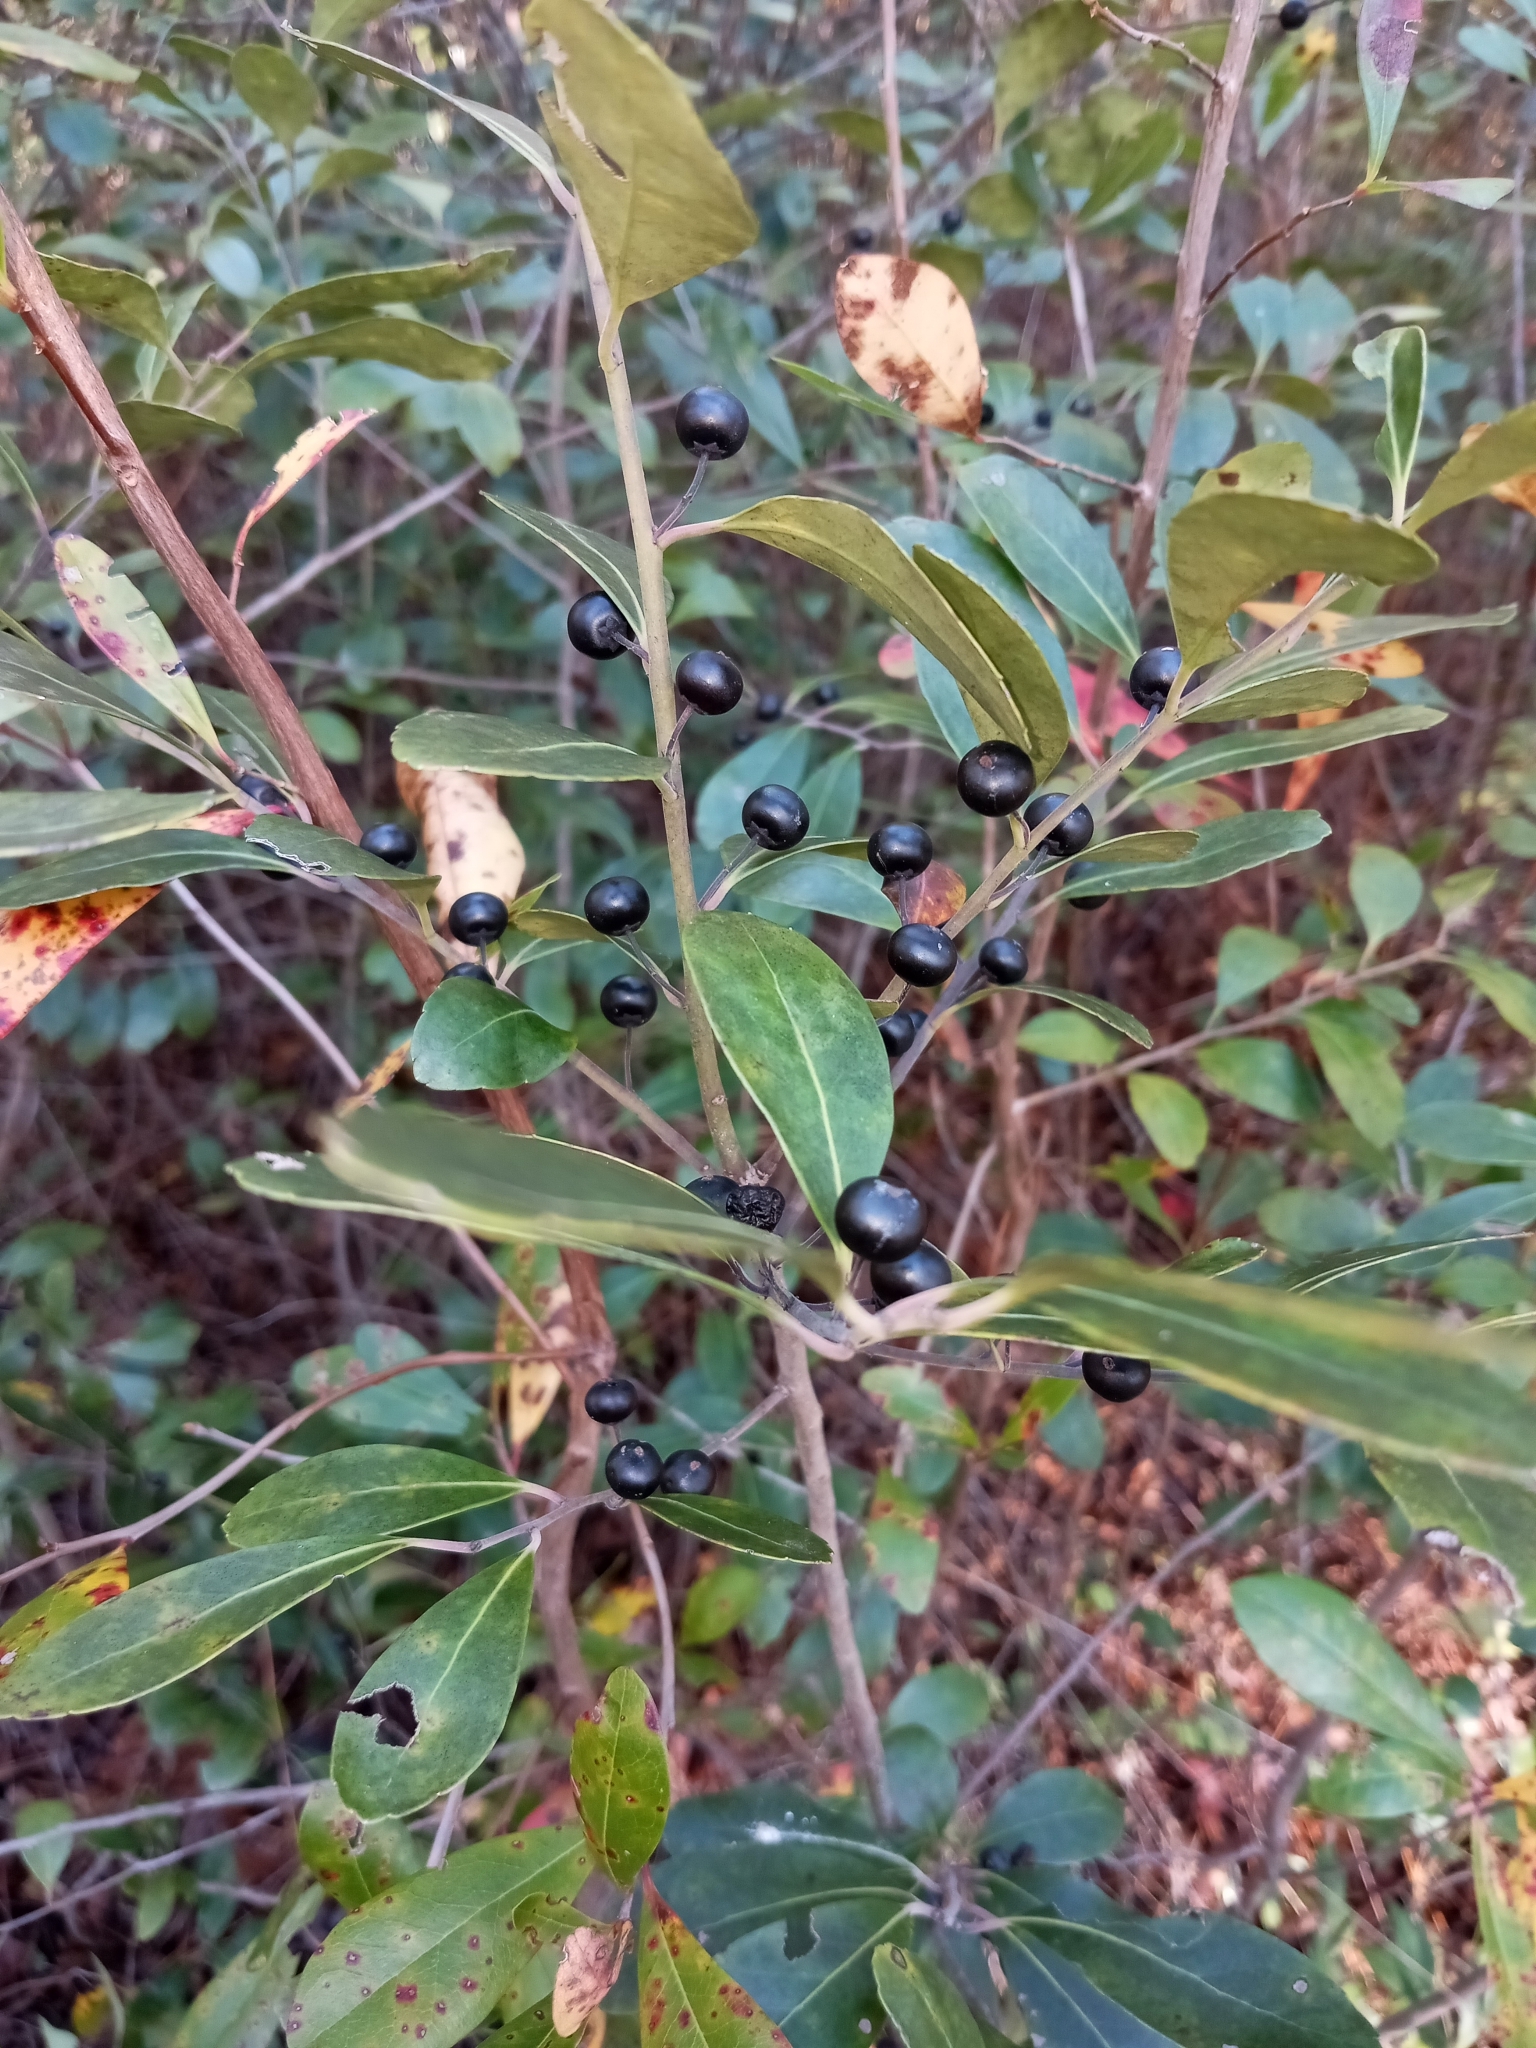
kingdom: Plantae
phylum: Tracheophyta
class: Magnoliopsida
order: Aquifoliales
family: Aquifoliaceae
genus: Ilex
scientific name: Ilex glabra
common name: Bitter gallberry
